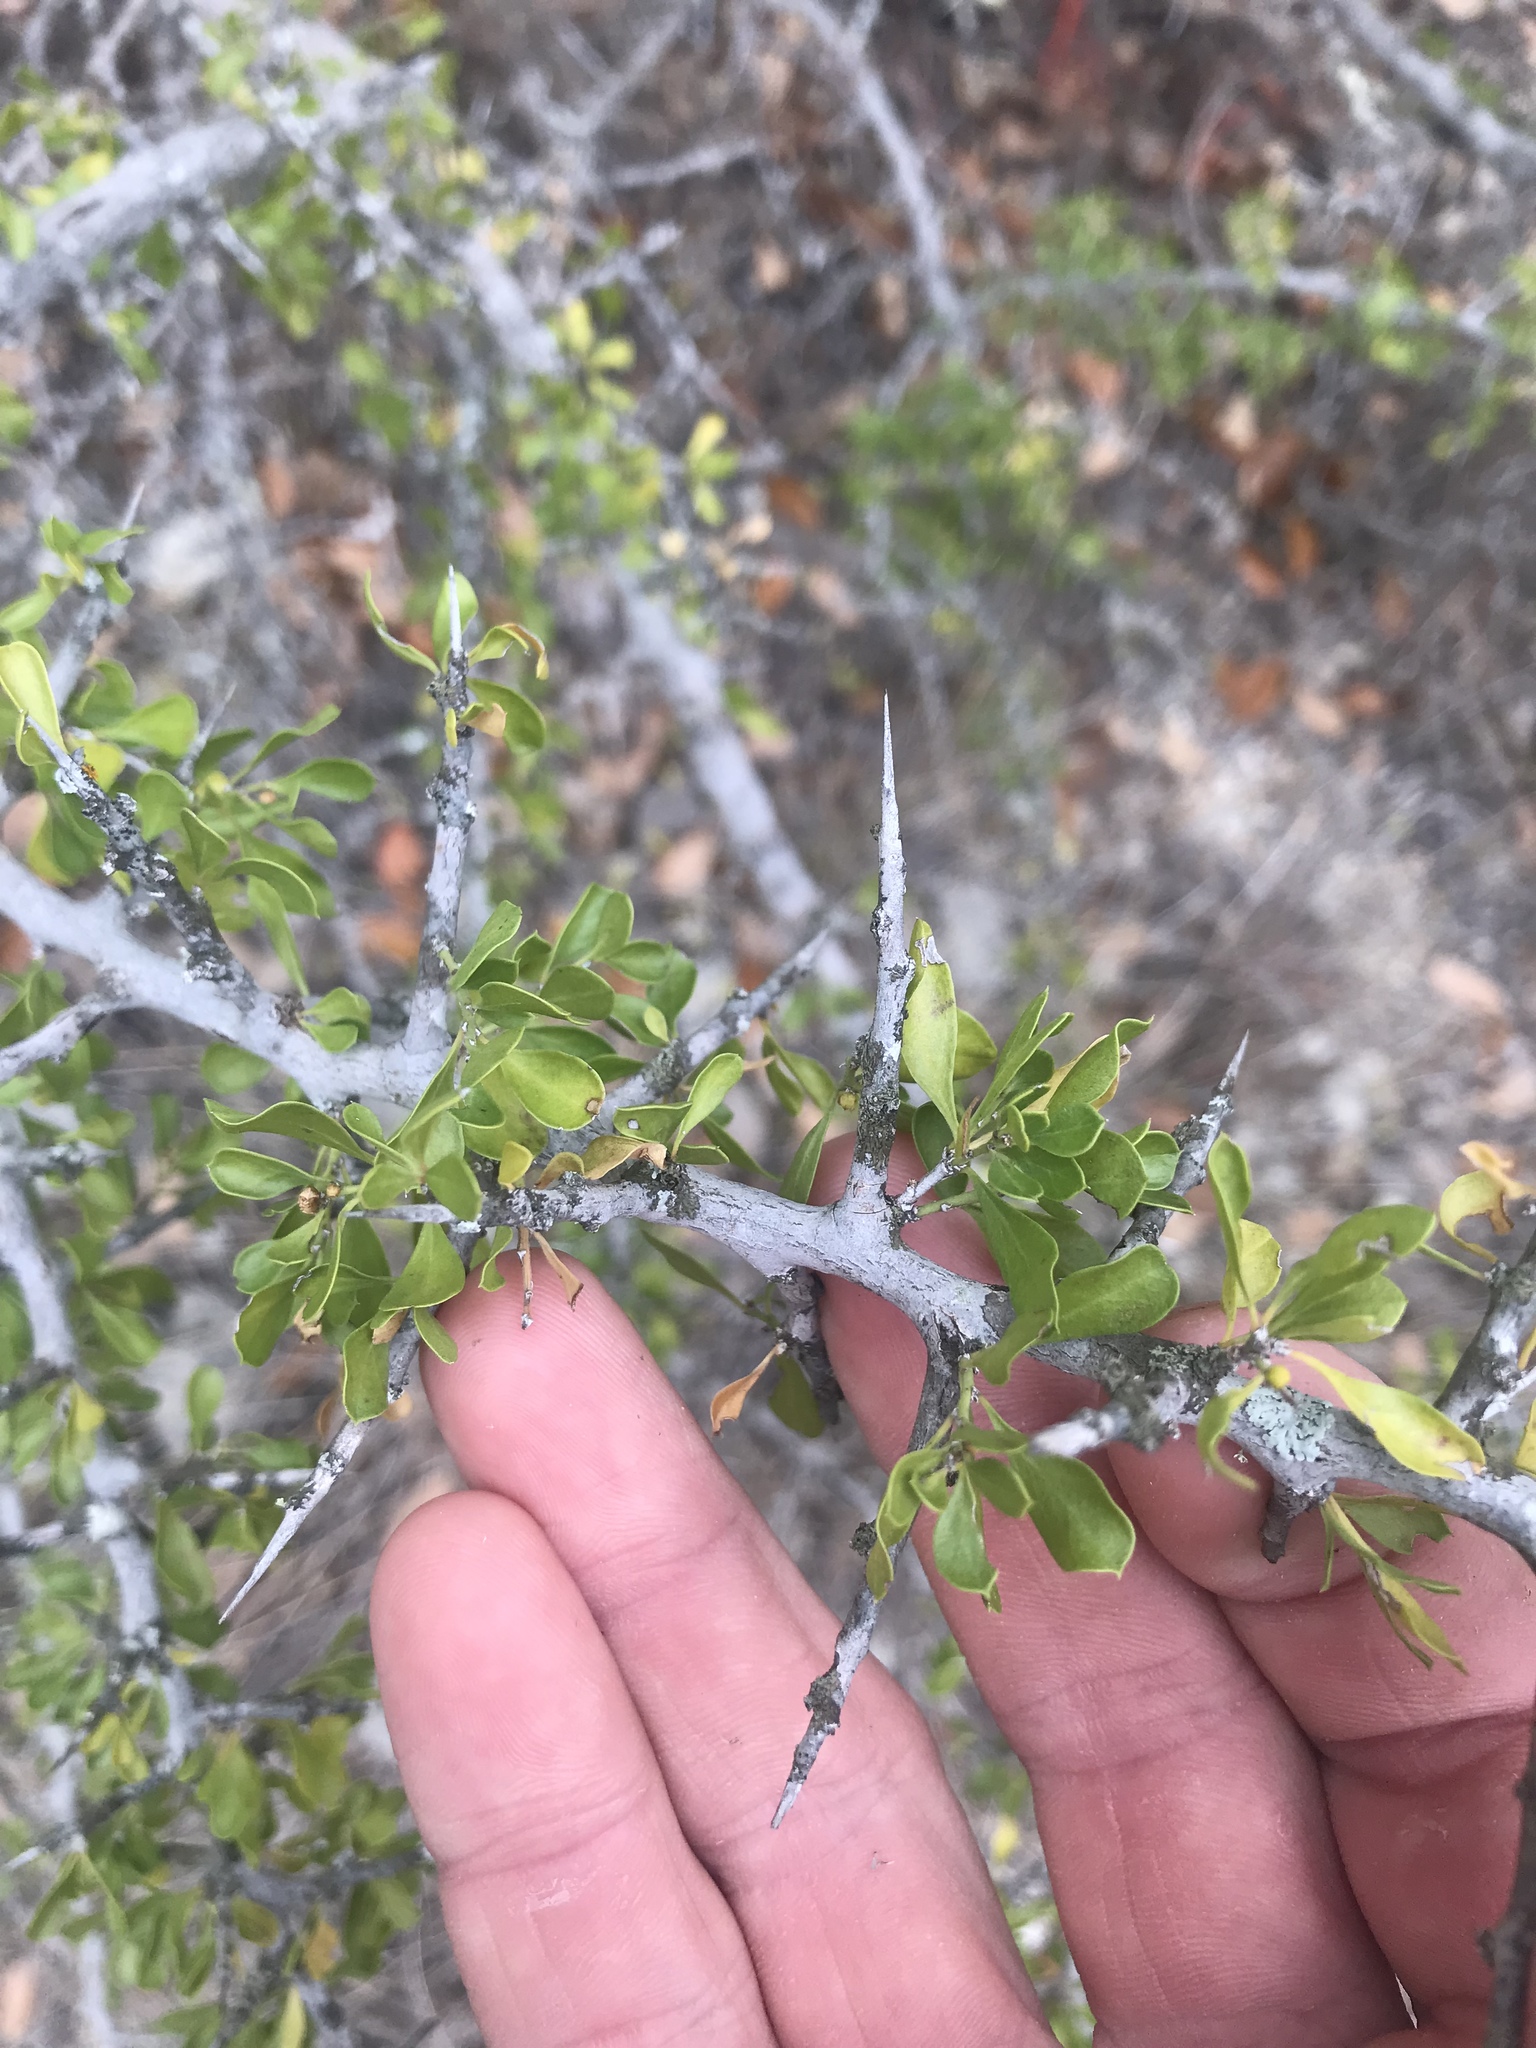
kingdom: Plantae
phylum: Tracheophyta
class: Magnoliopsida
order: Rosales
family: Rhamnaceae
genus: Condalia
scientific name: Condalia viridis
